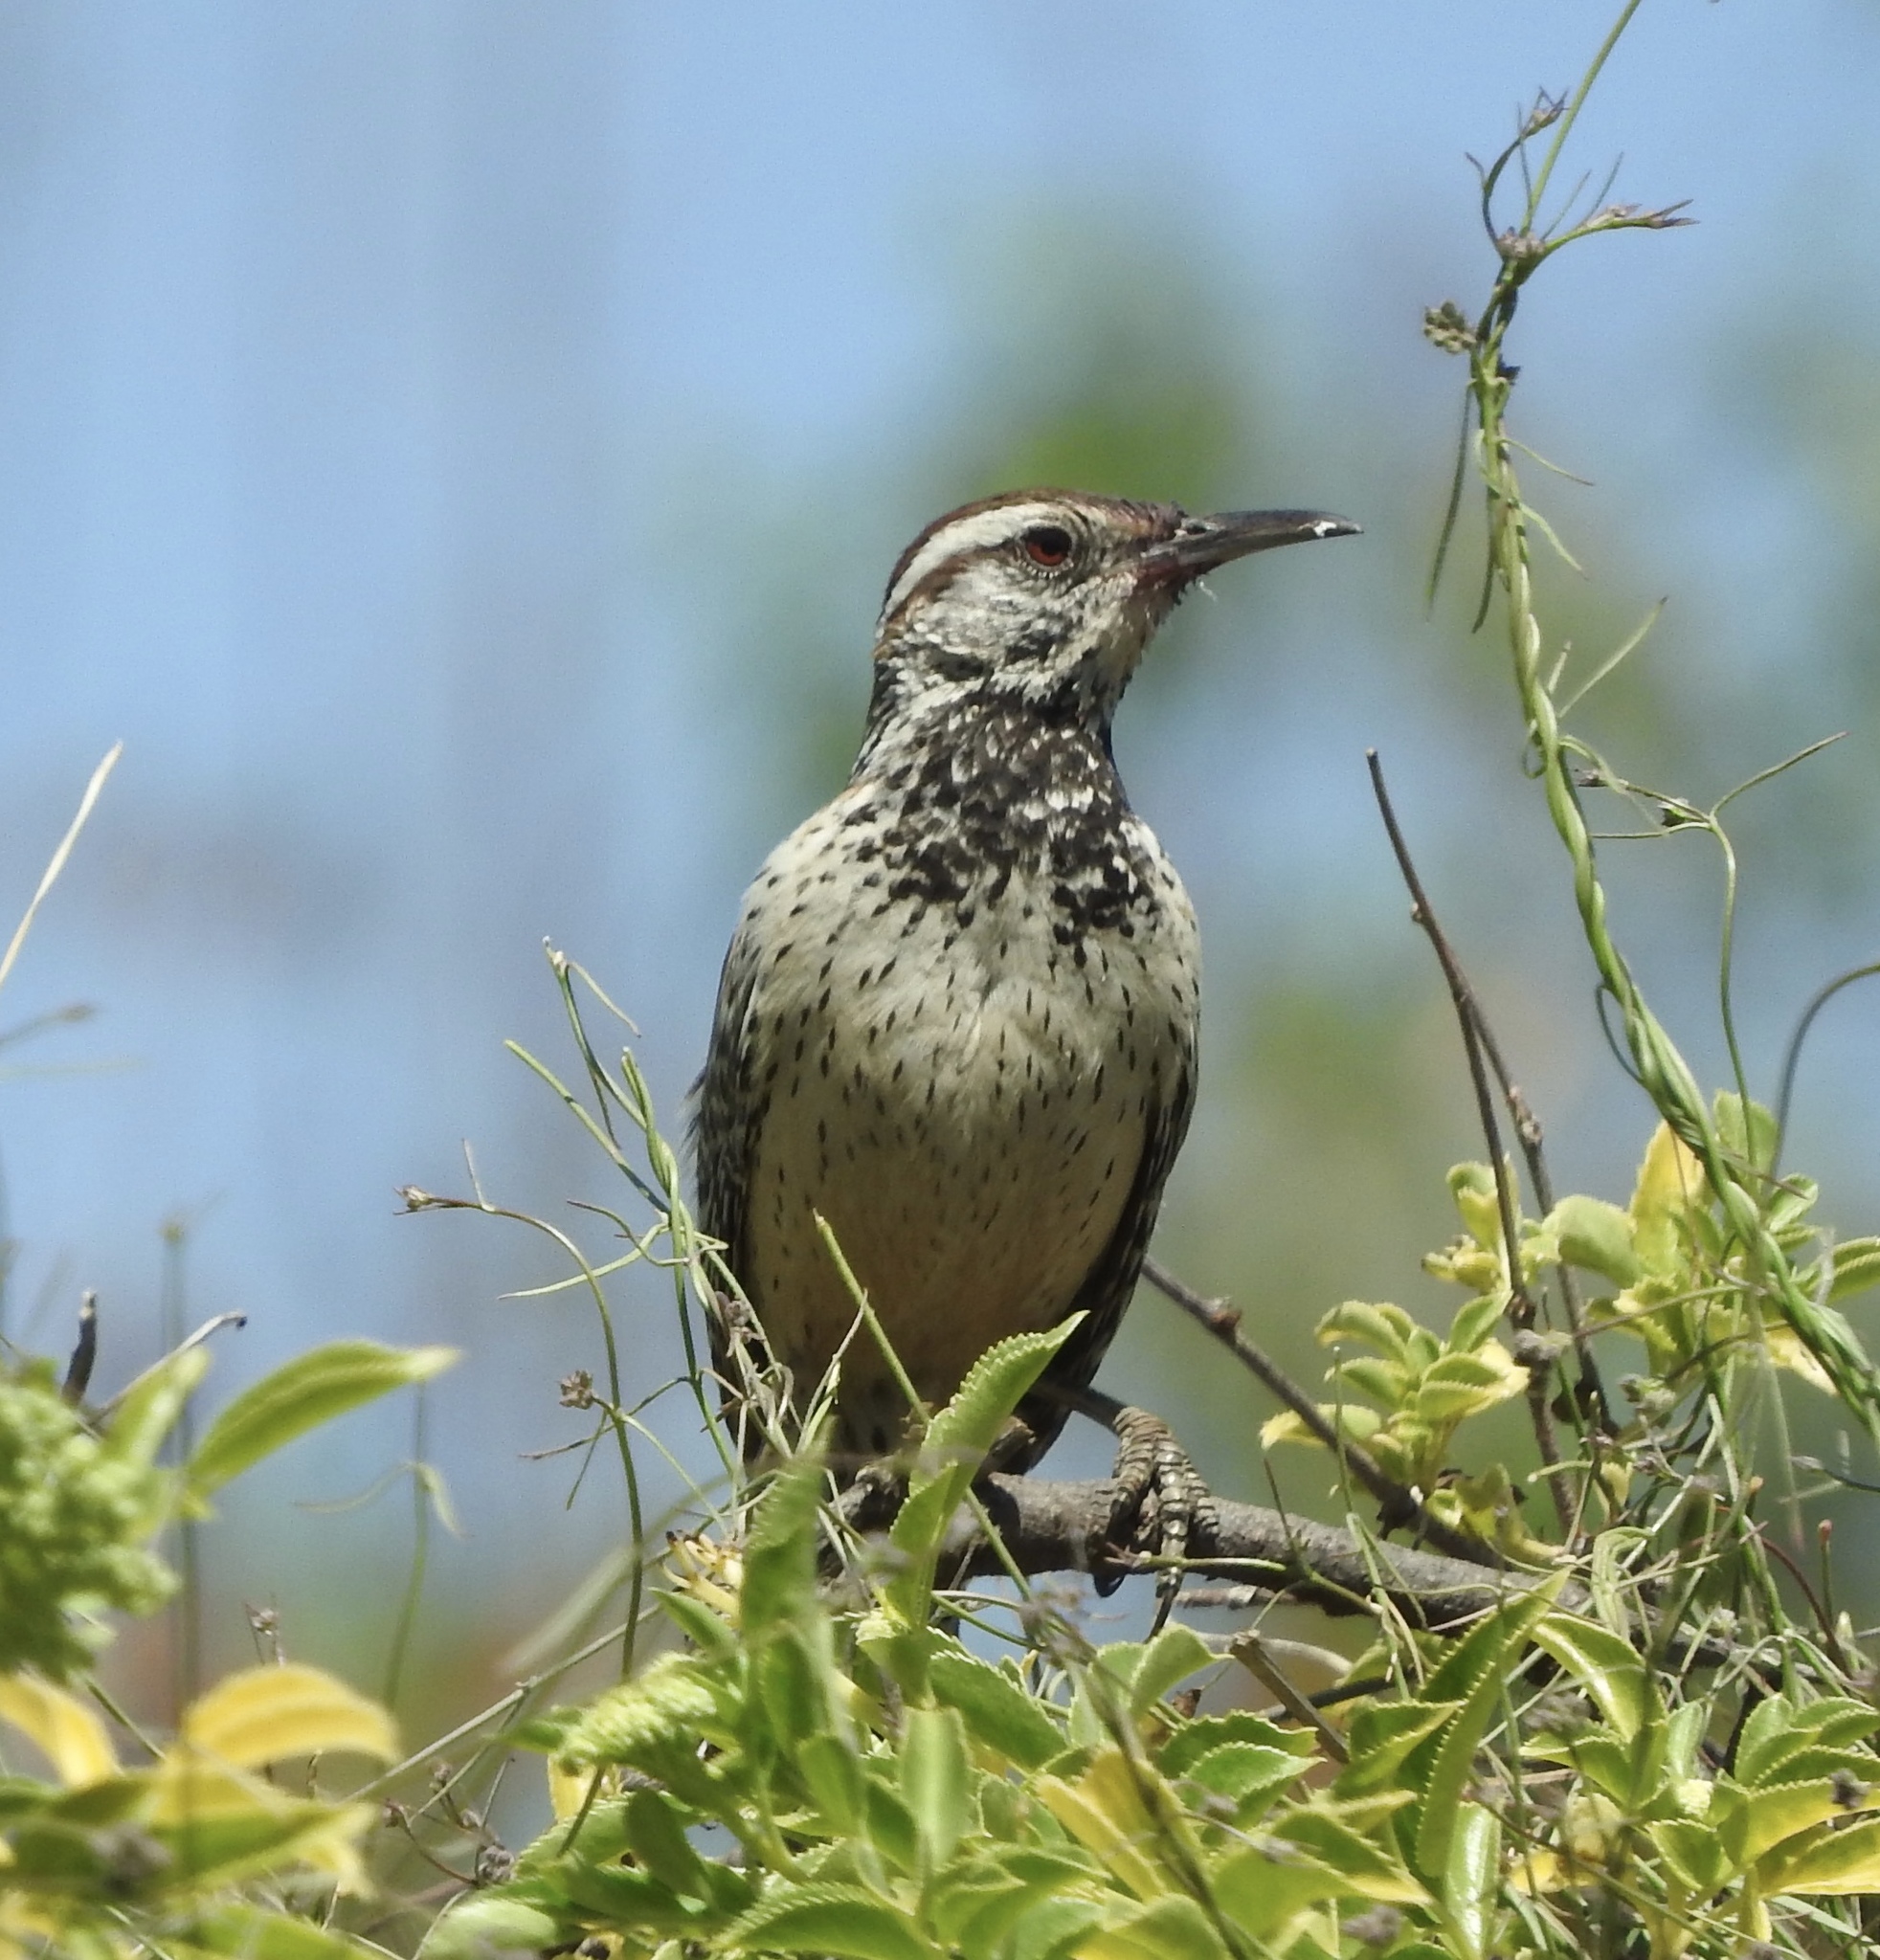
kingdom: Animalia
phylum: Chordata
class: Aves
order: Passeriformes
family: Troglodytidae
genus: Campylorhynchus
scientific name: Campylorhynchus brunneicapillus
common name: Cactus wren
